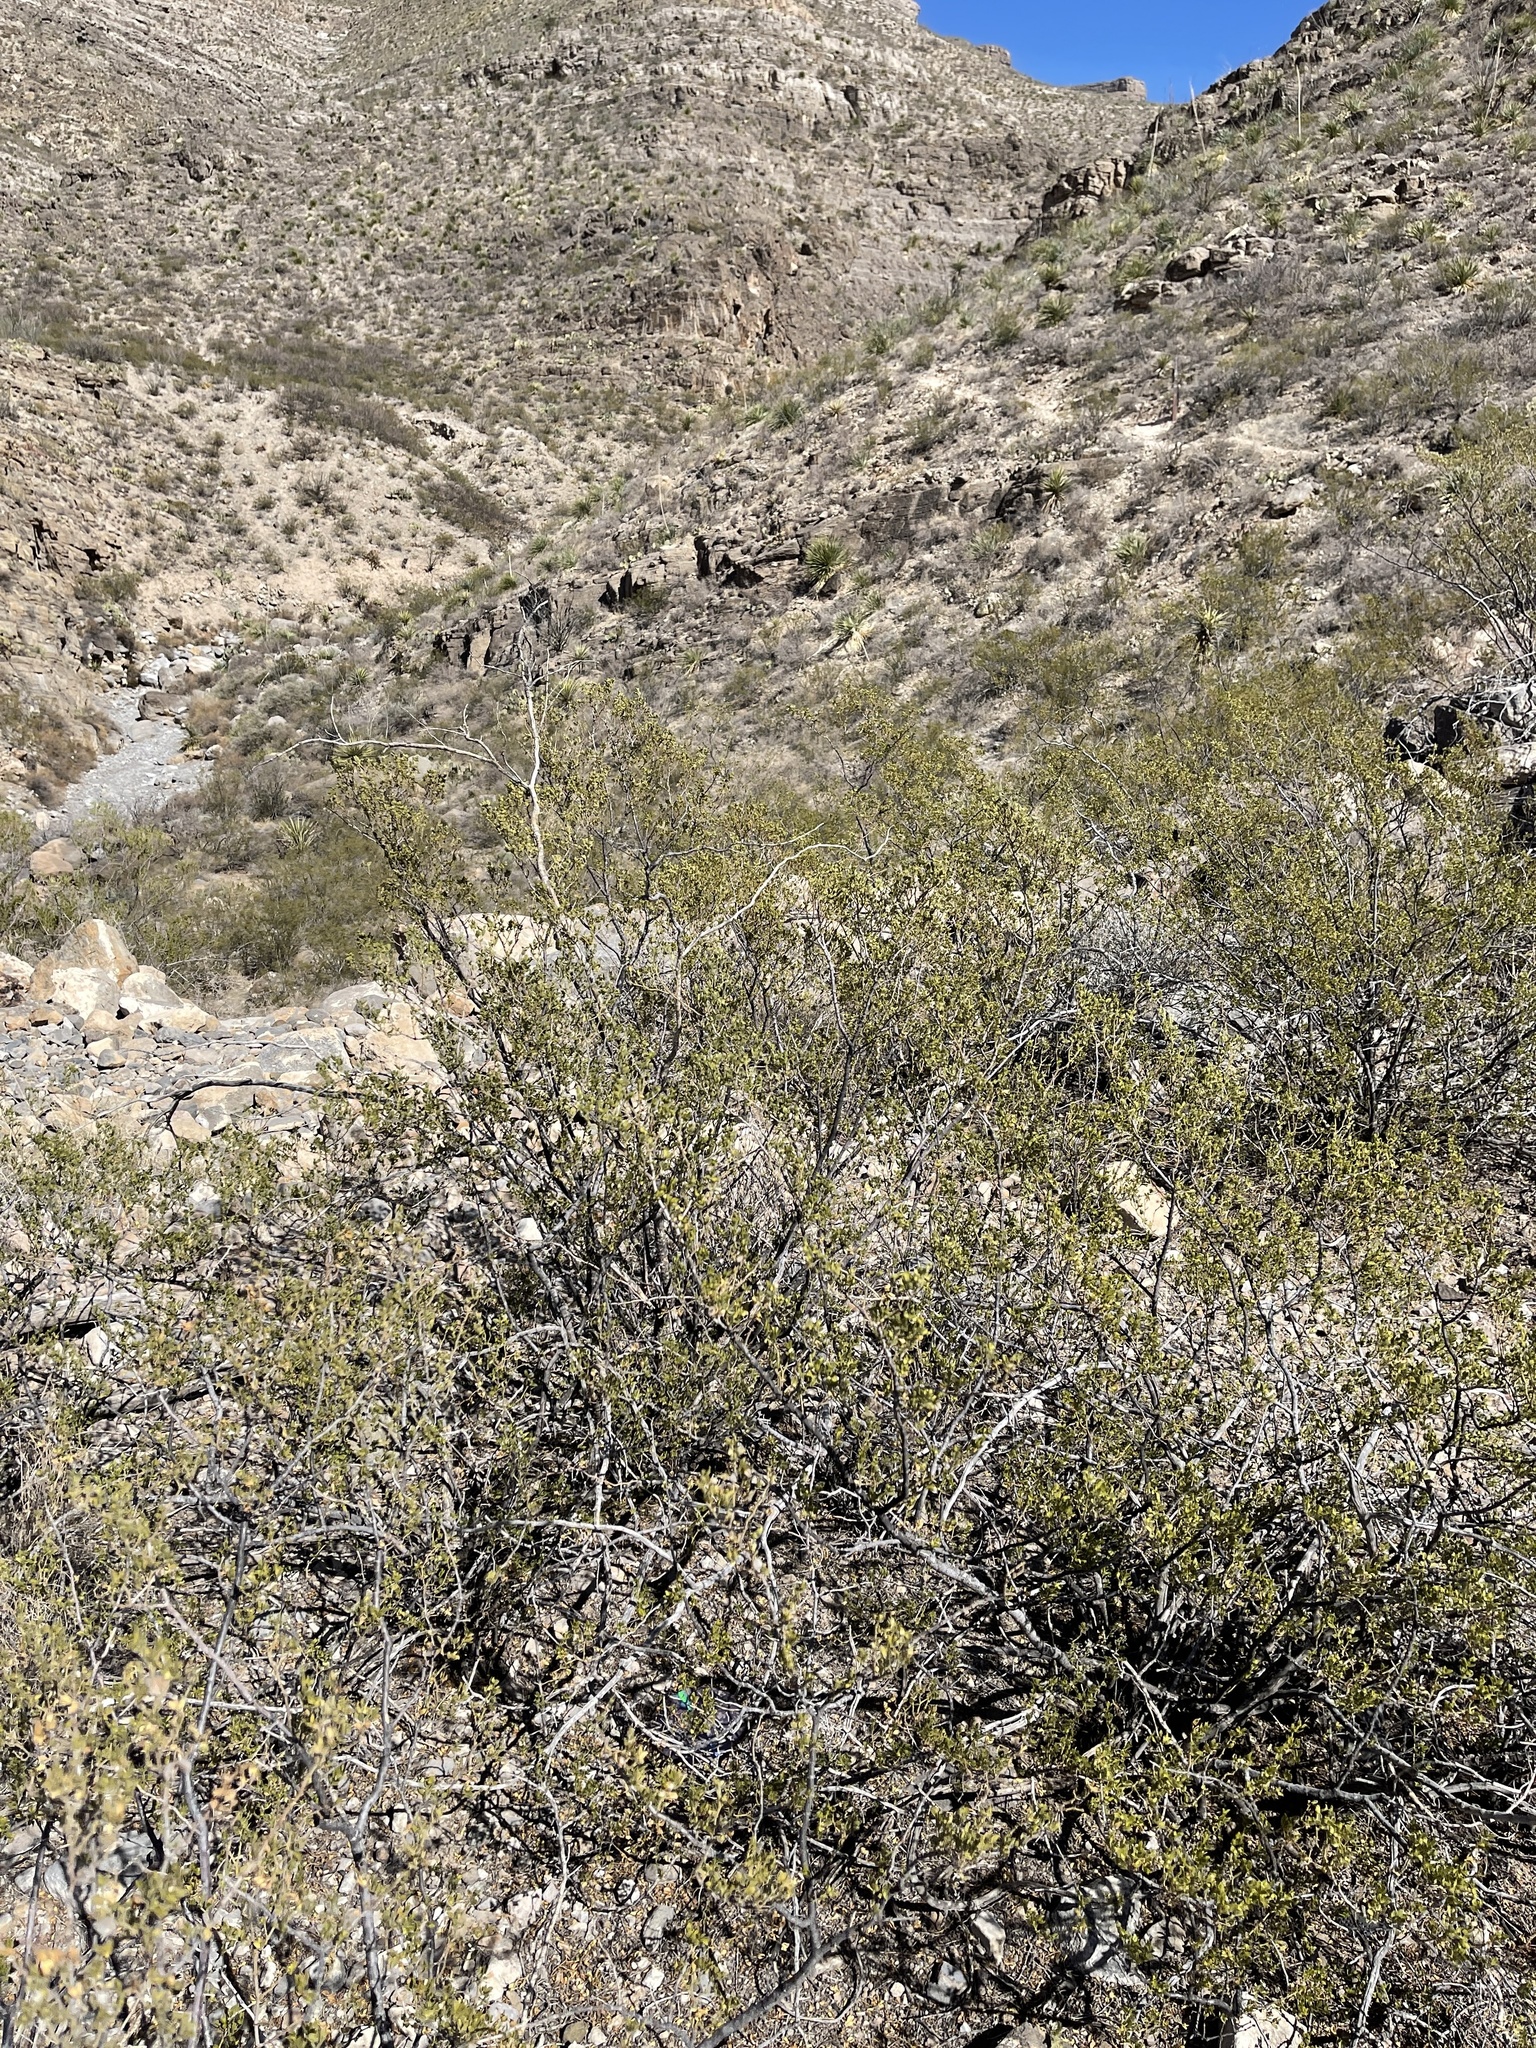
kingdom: Plantae
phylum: Tracheophyta
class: Magnoliopsida
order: Zygophyllales
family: Zygophyllaceae
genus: Larrea
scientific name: Larrea tridentata
